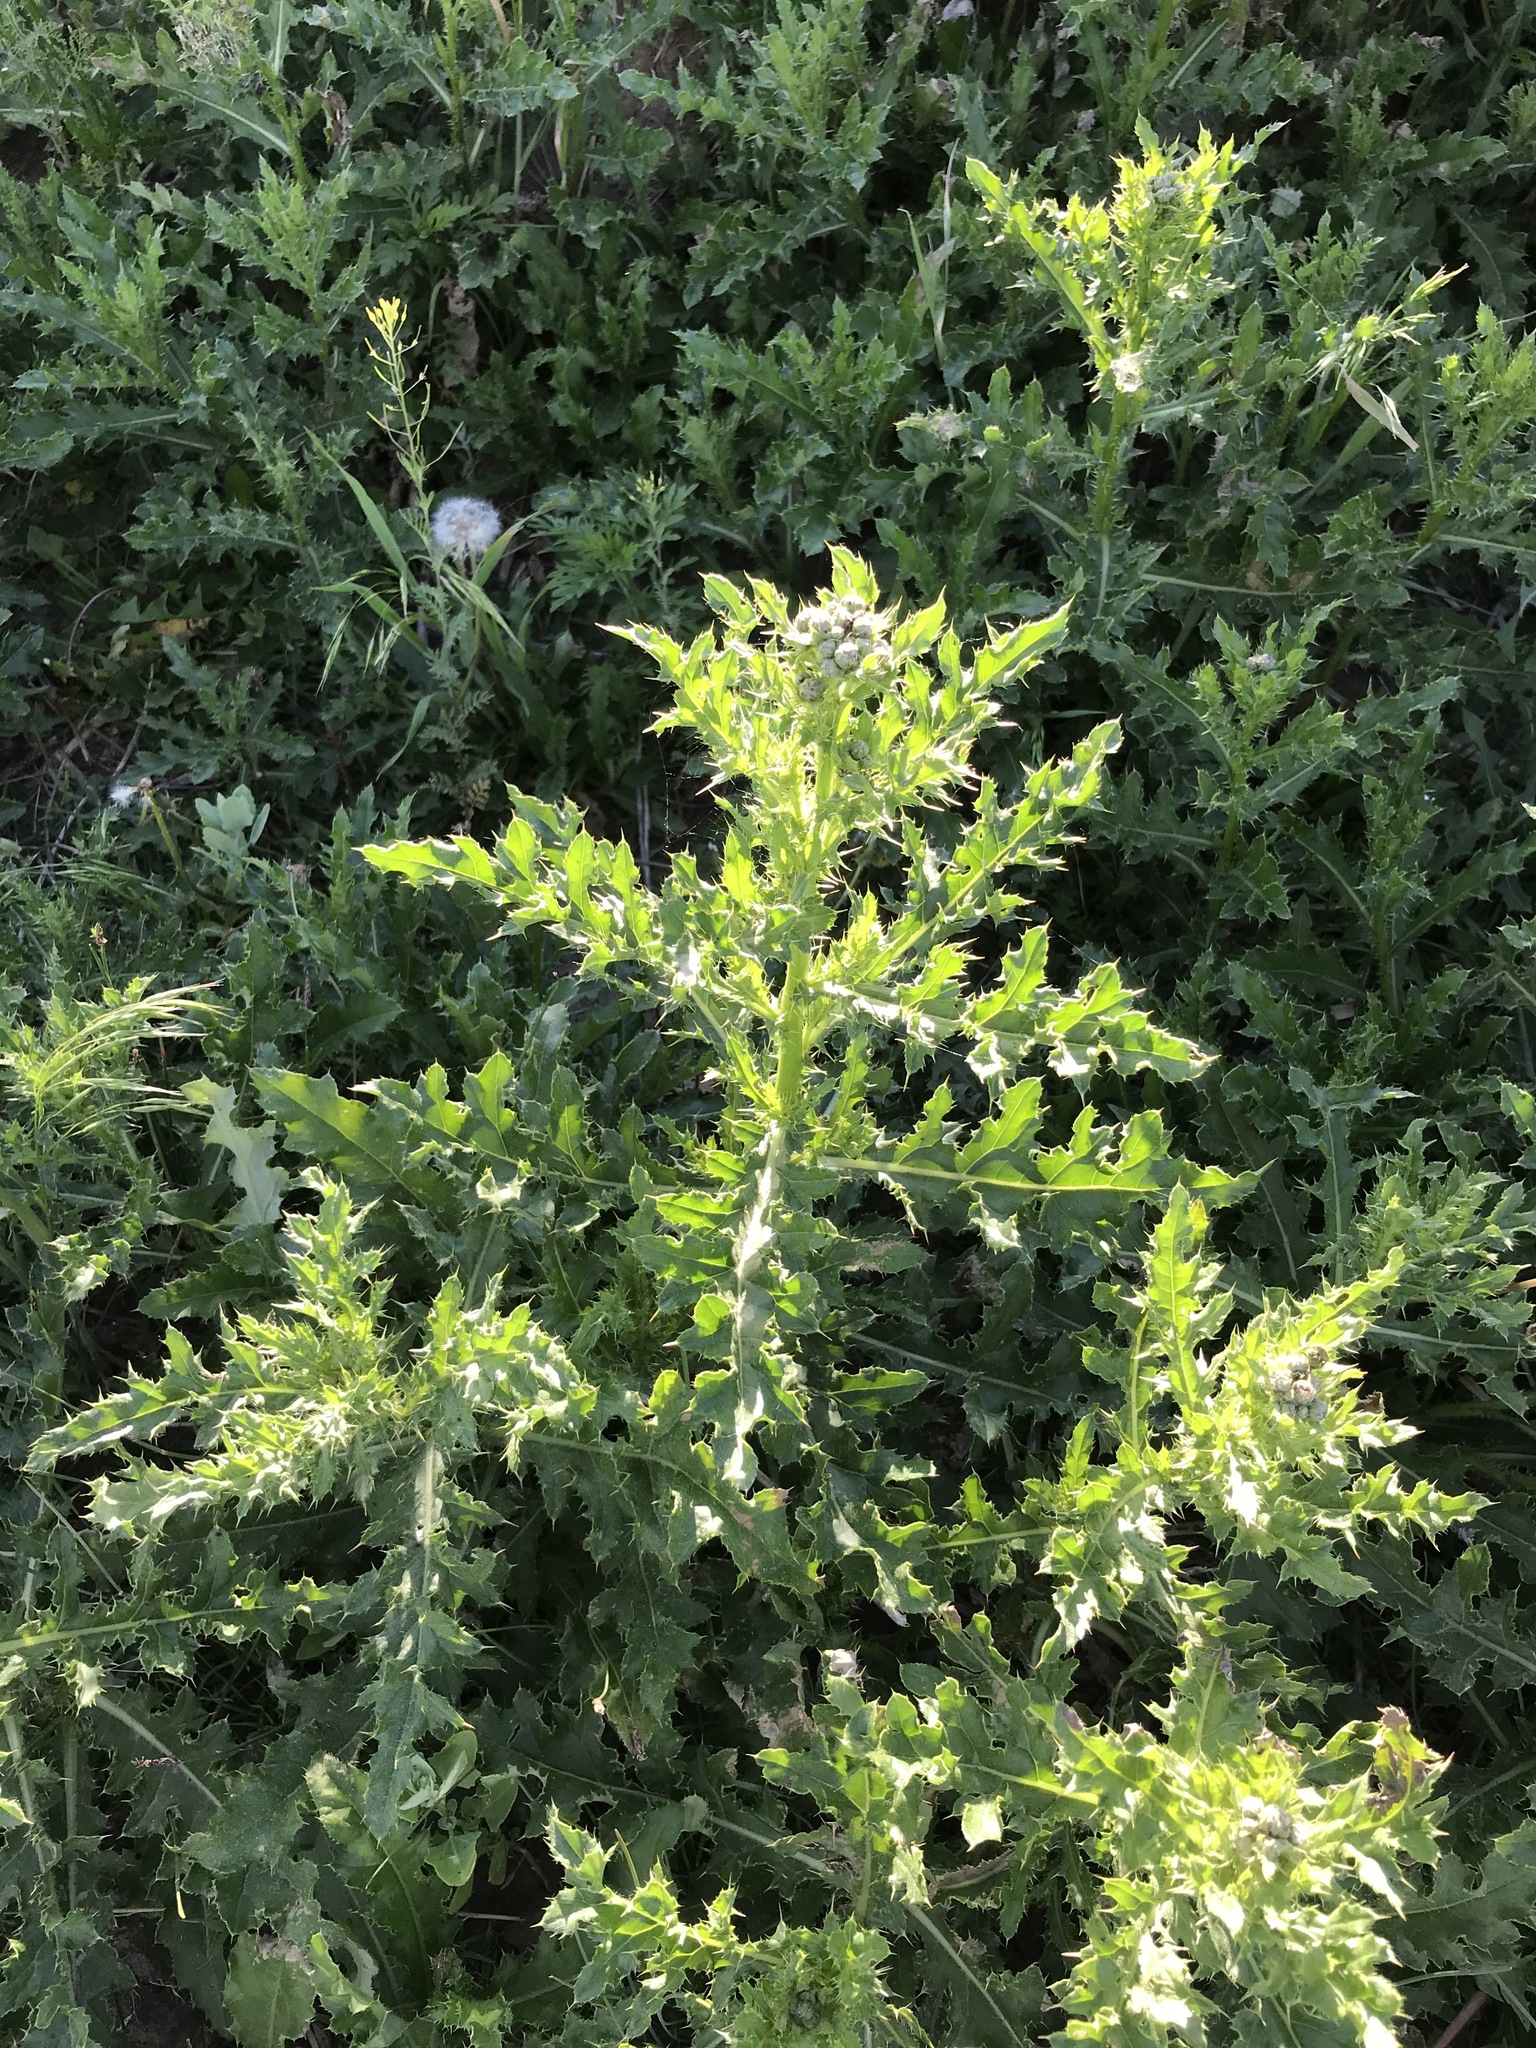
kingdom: Plantae
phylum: Tracheophyta
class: Magnoliopsida
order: Asterales
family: Asteraceae
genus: Cirsium
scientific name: Cirsium arvense
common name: Creeping thistle
